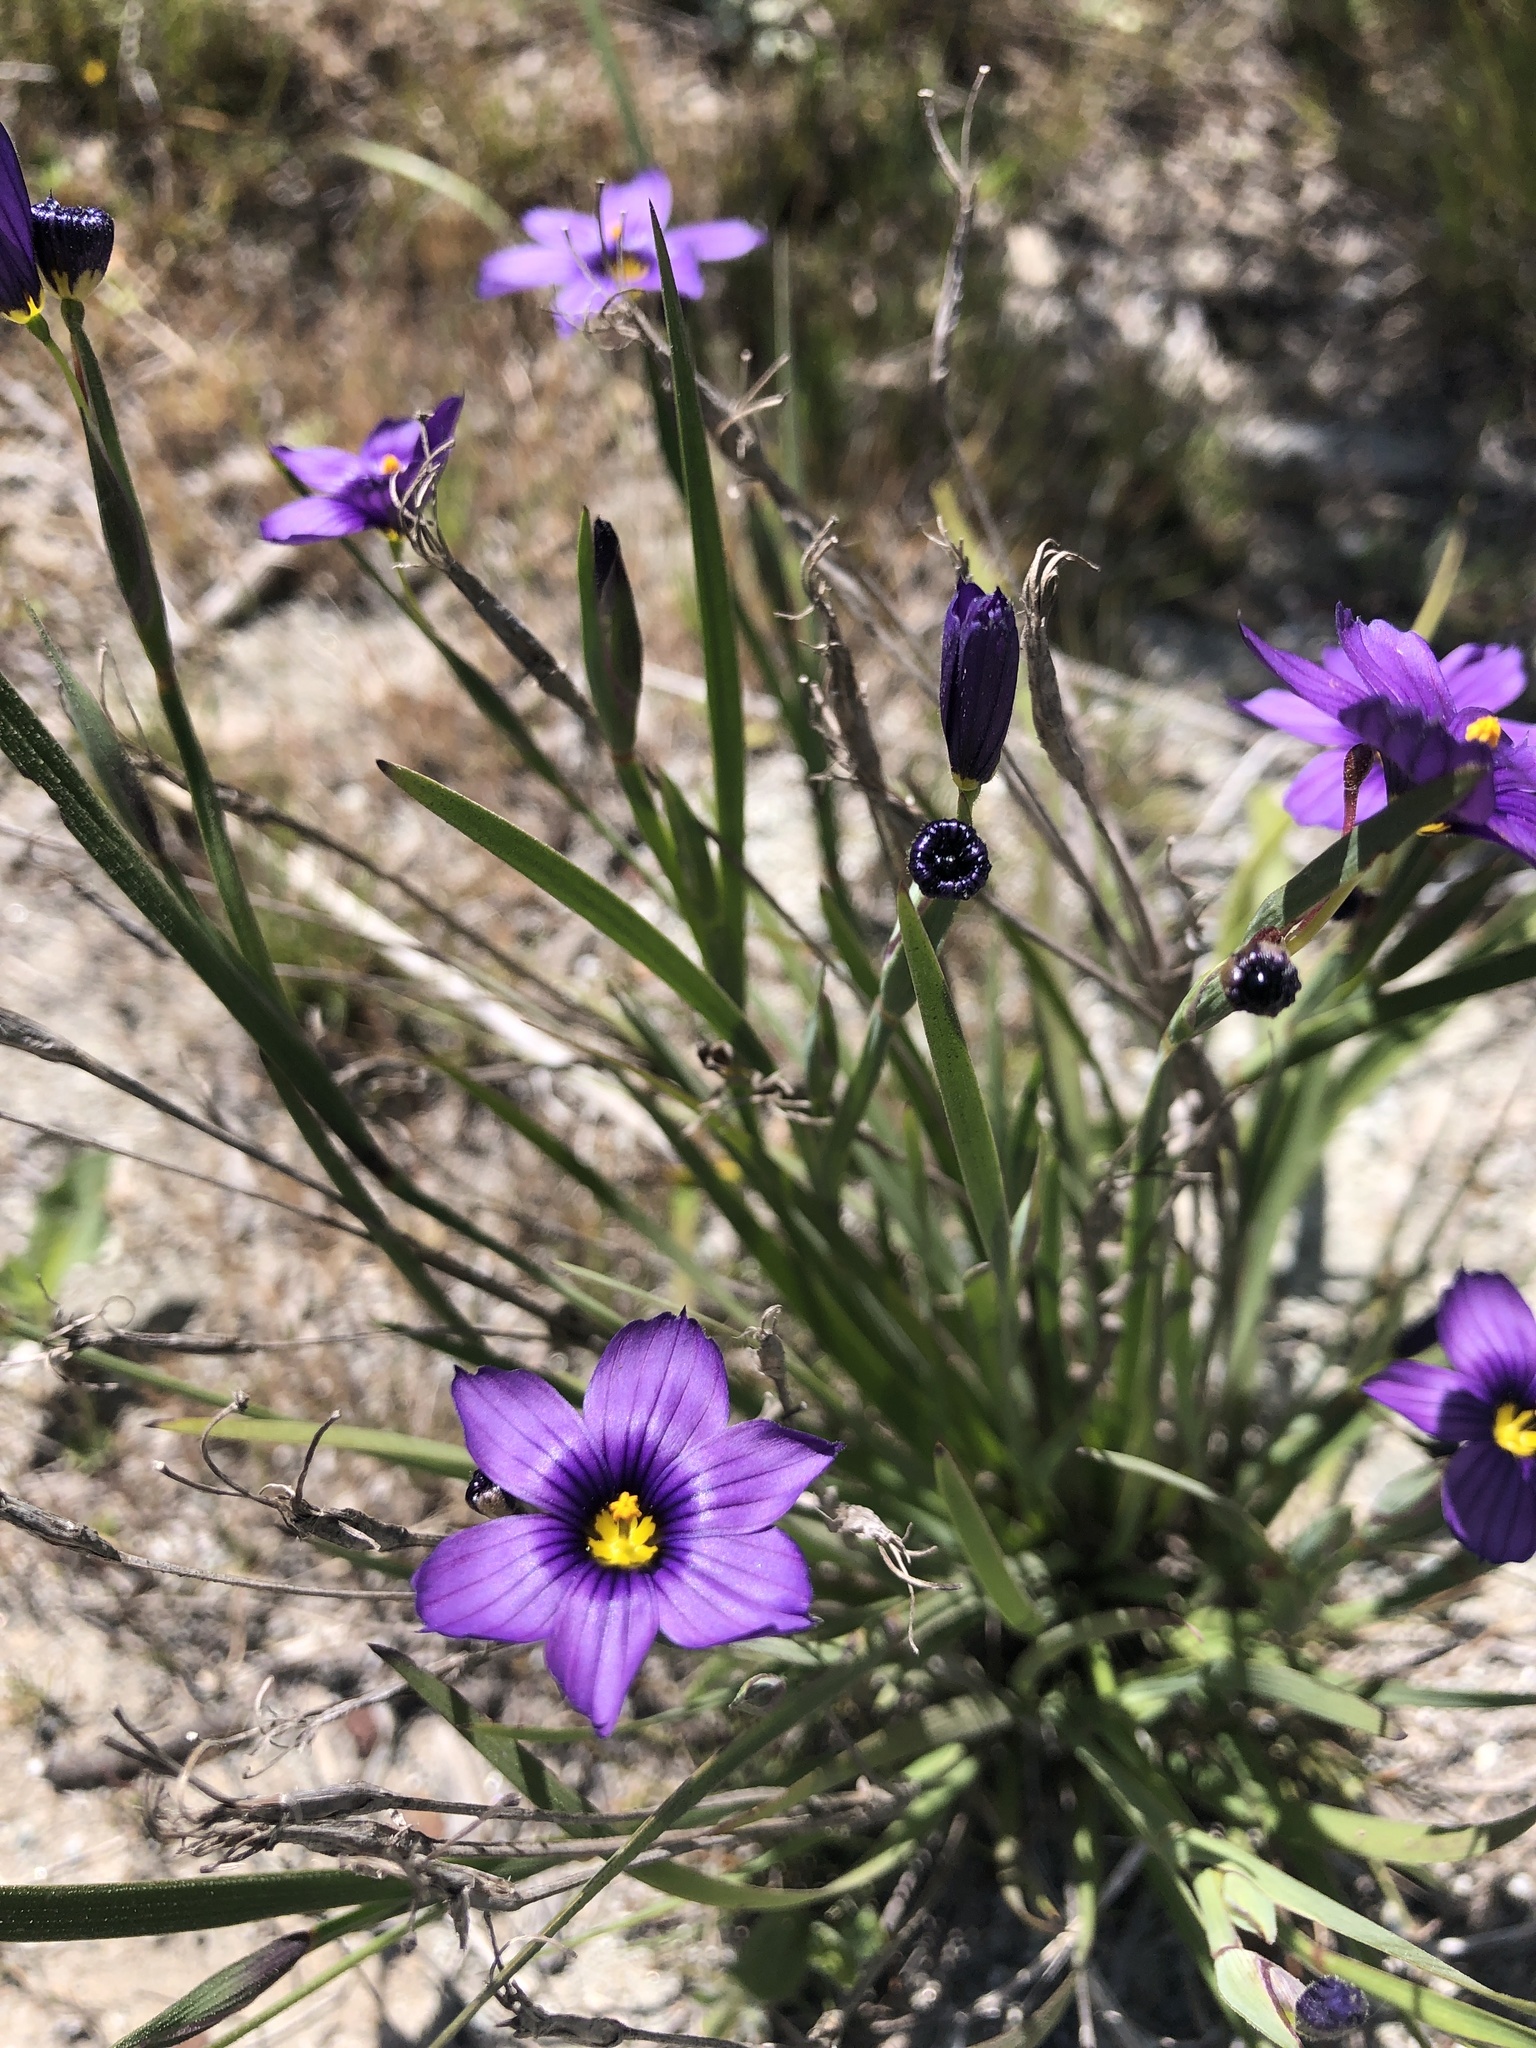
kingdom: Plantae
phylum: Tracheophyta
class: Liliopsida
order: Asparagales
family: Iridaceae
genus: Sisyrinchium
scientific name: Sisyrinchium bellum
